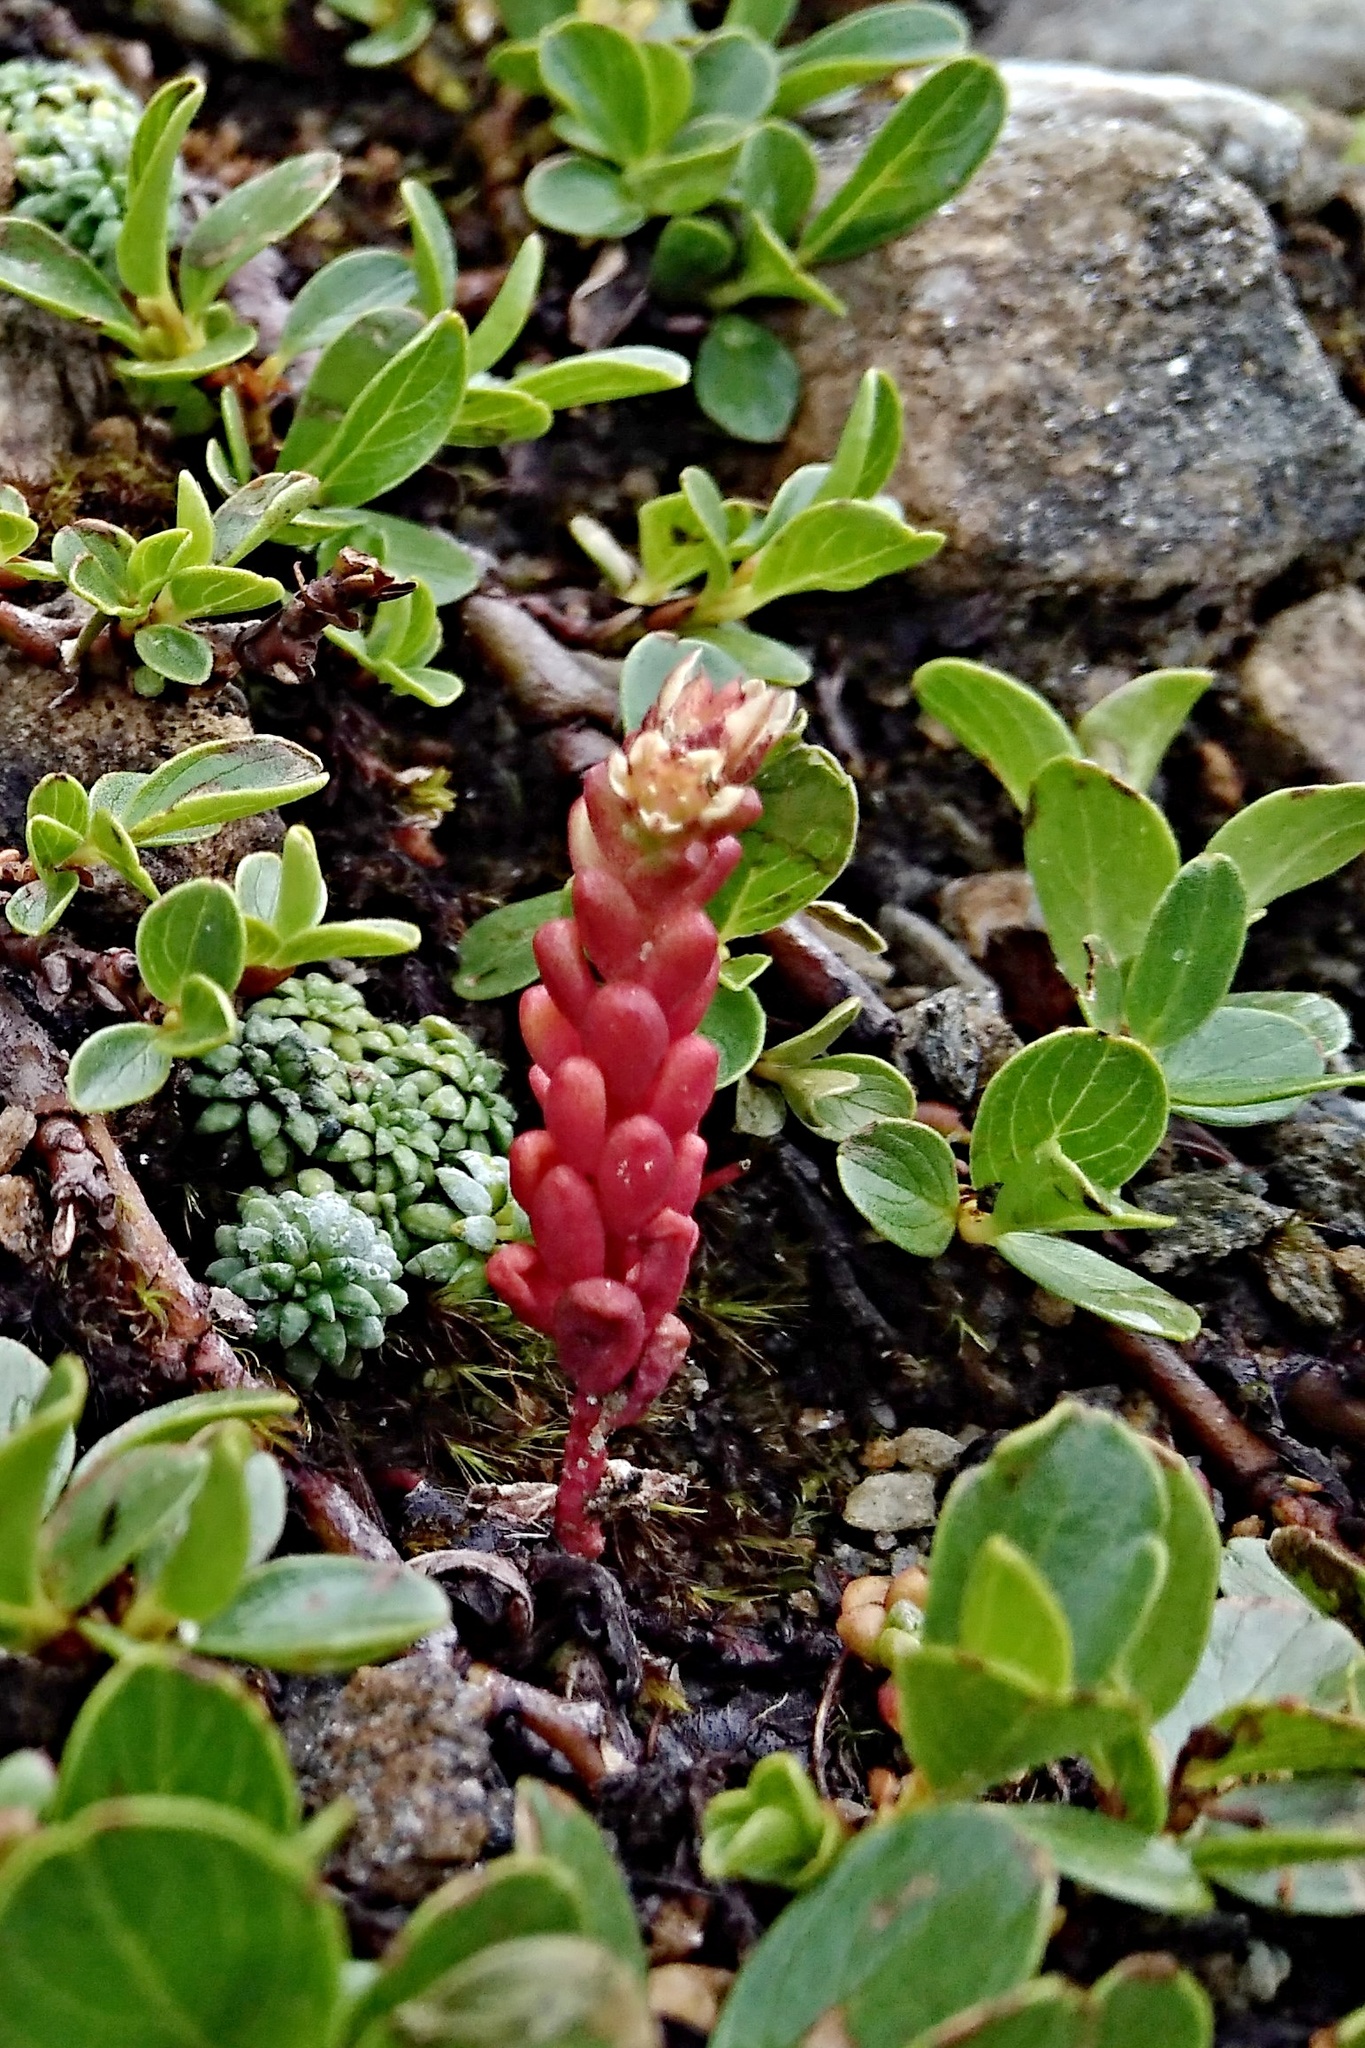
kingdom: Plantae
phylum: Tracheophyta
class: Magnoliopsida
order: Saxifragales
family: Crassulaceae
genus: Sedum
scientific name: Sedum atratum
